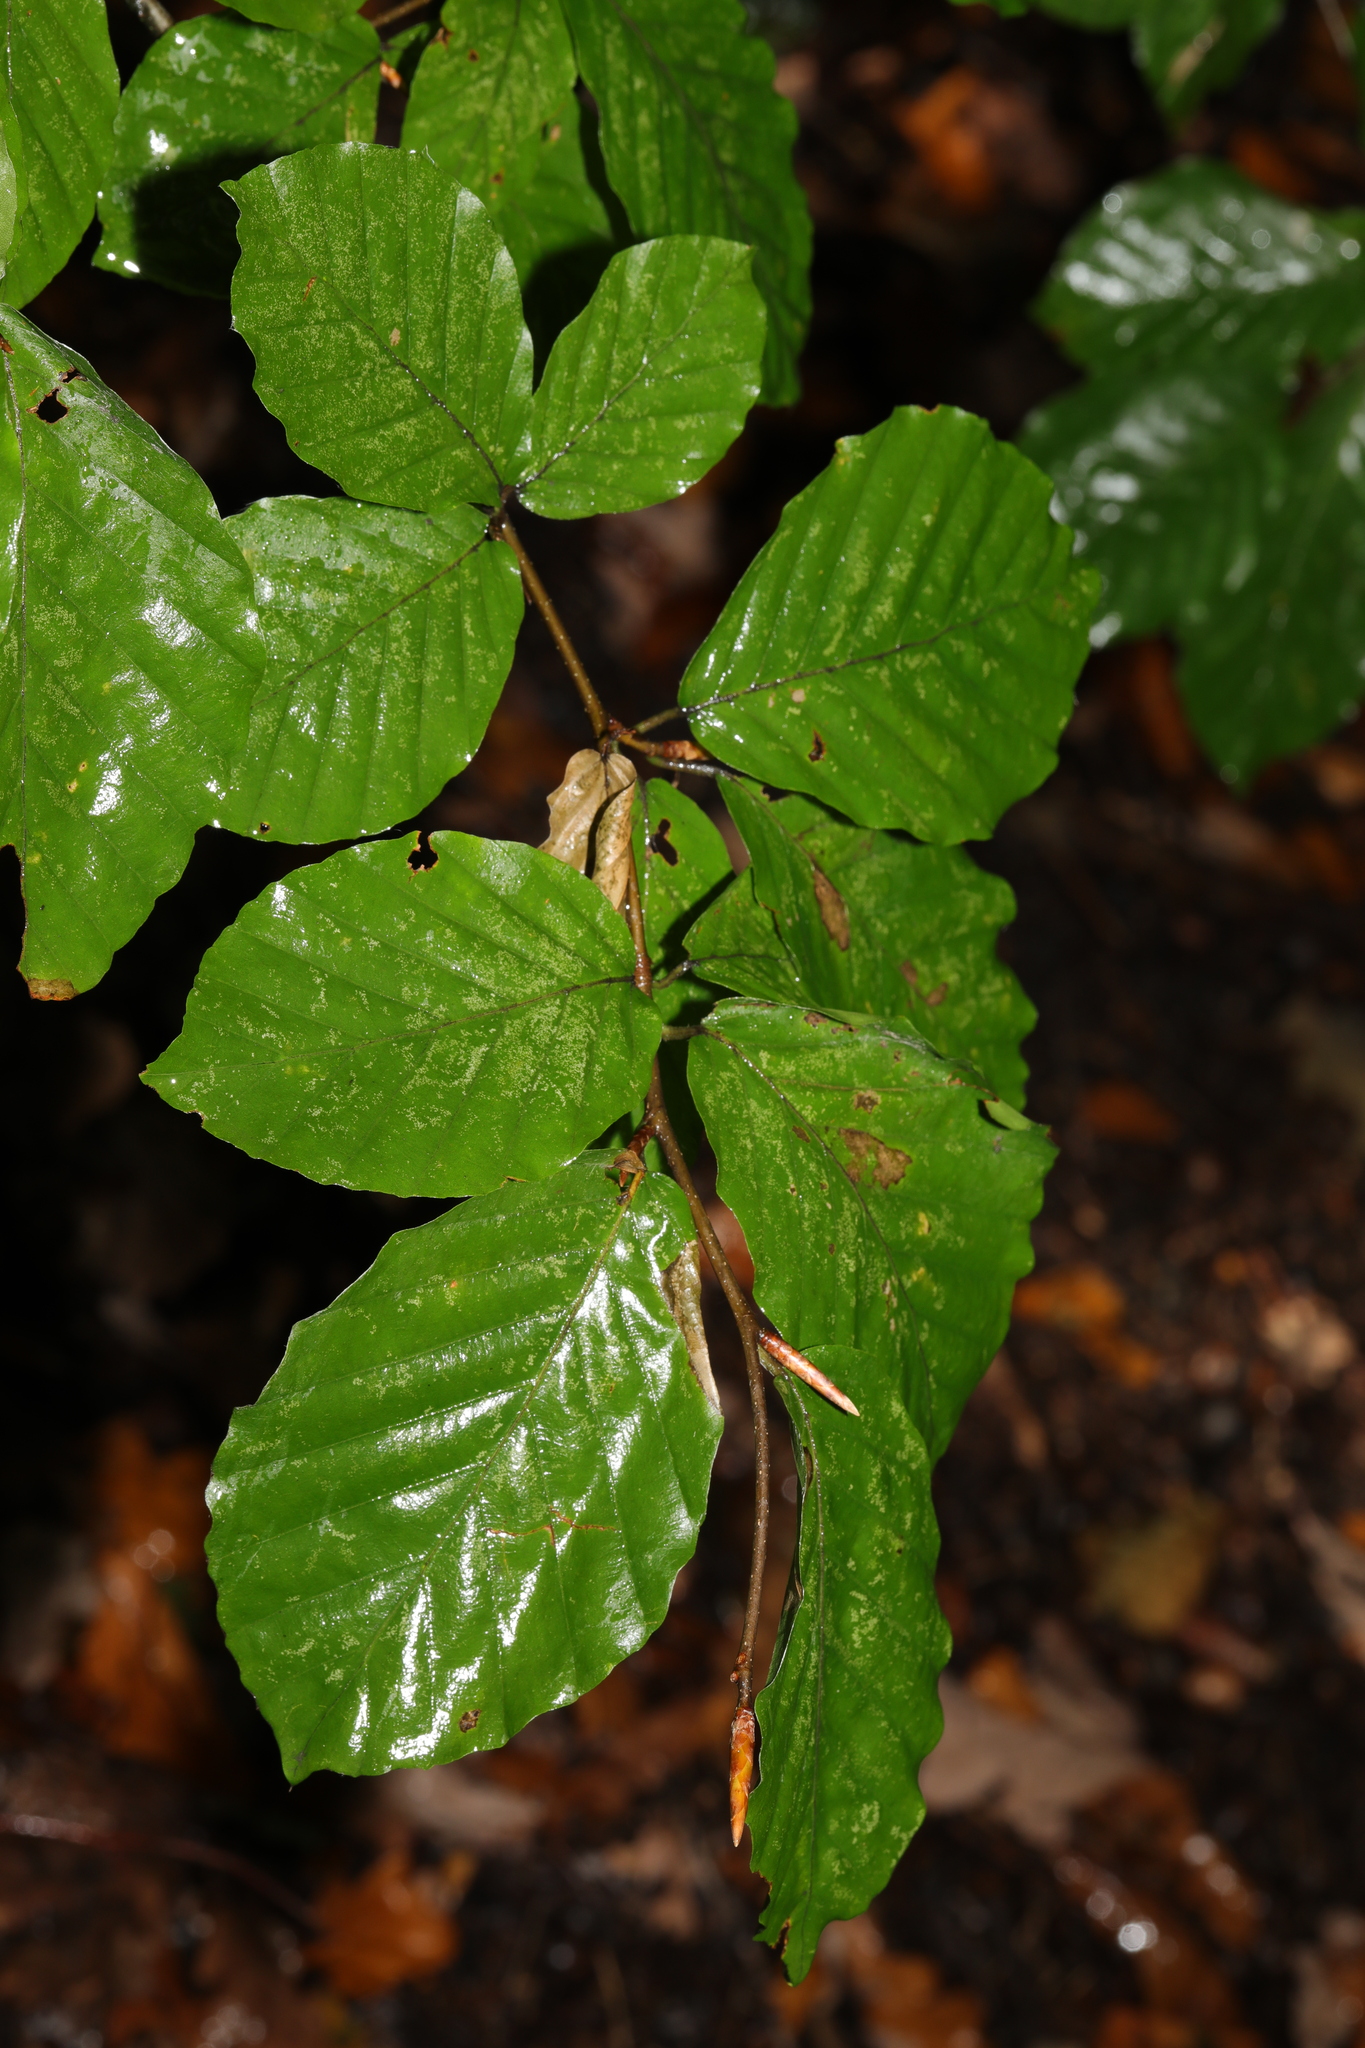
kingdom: Plantae
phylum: Tracheophyta
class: Magnoliopsida
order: Fagales
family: Fagaceae
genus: Fagus
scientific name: Fagus sylvatica
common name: Beech
